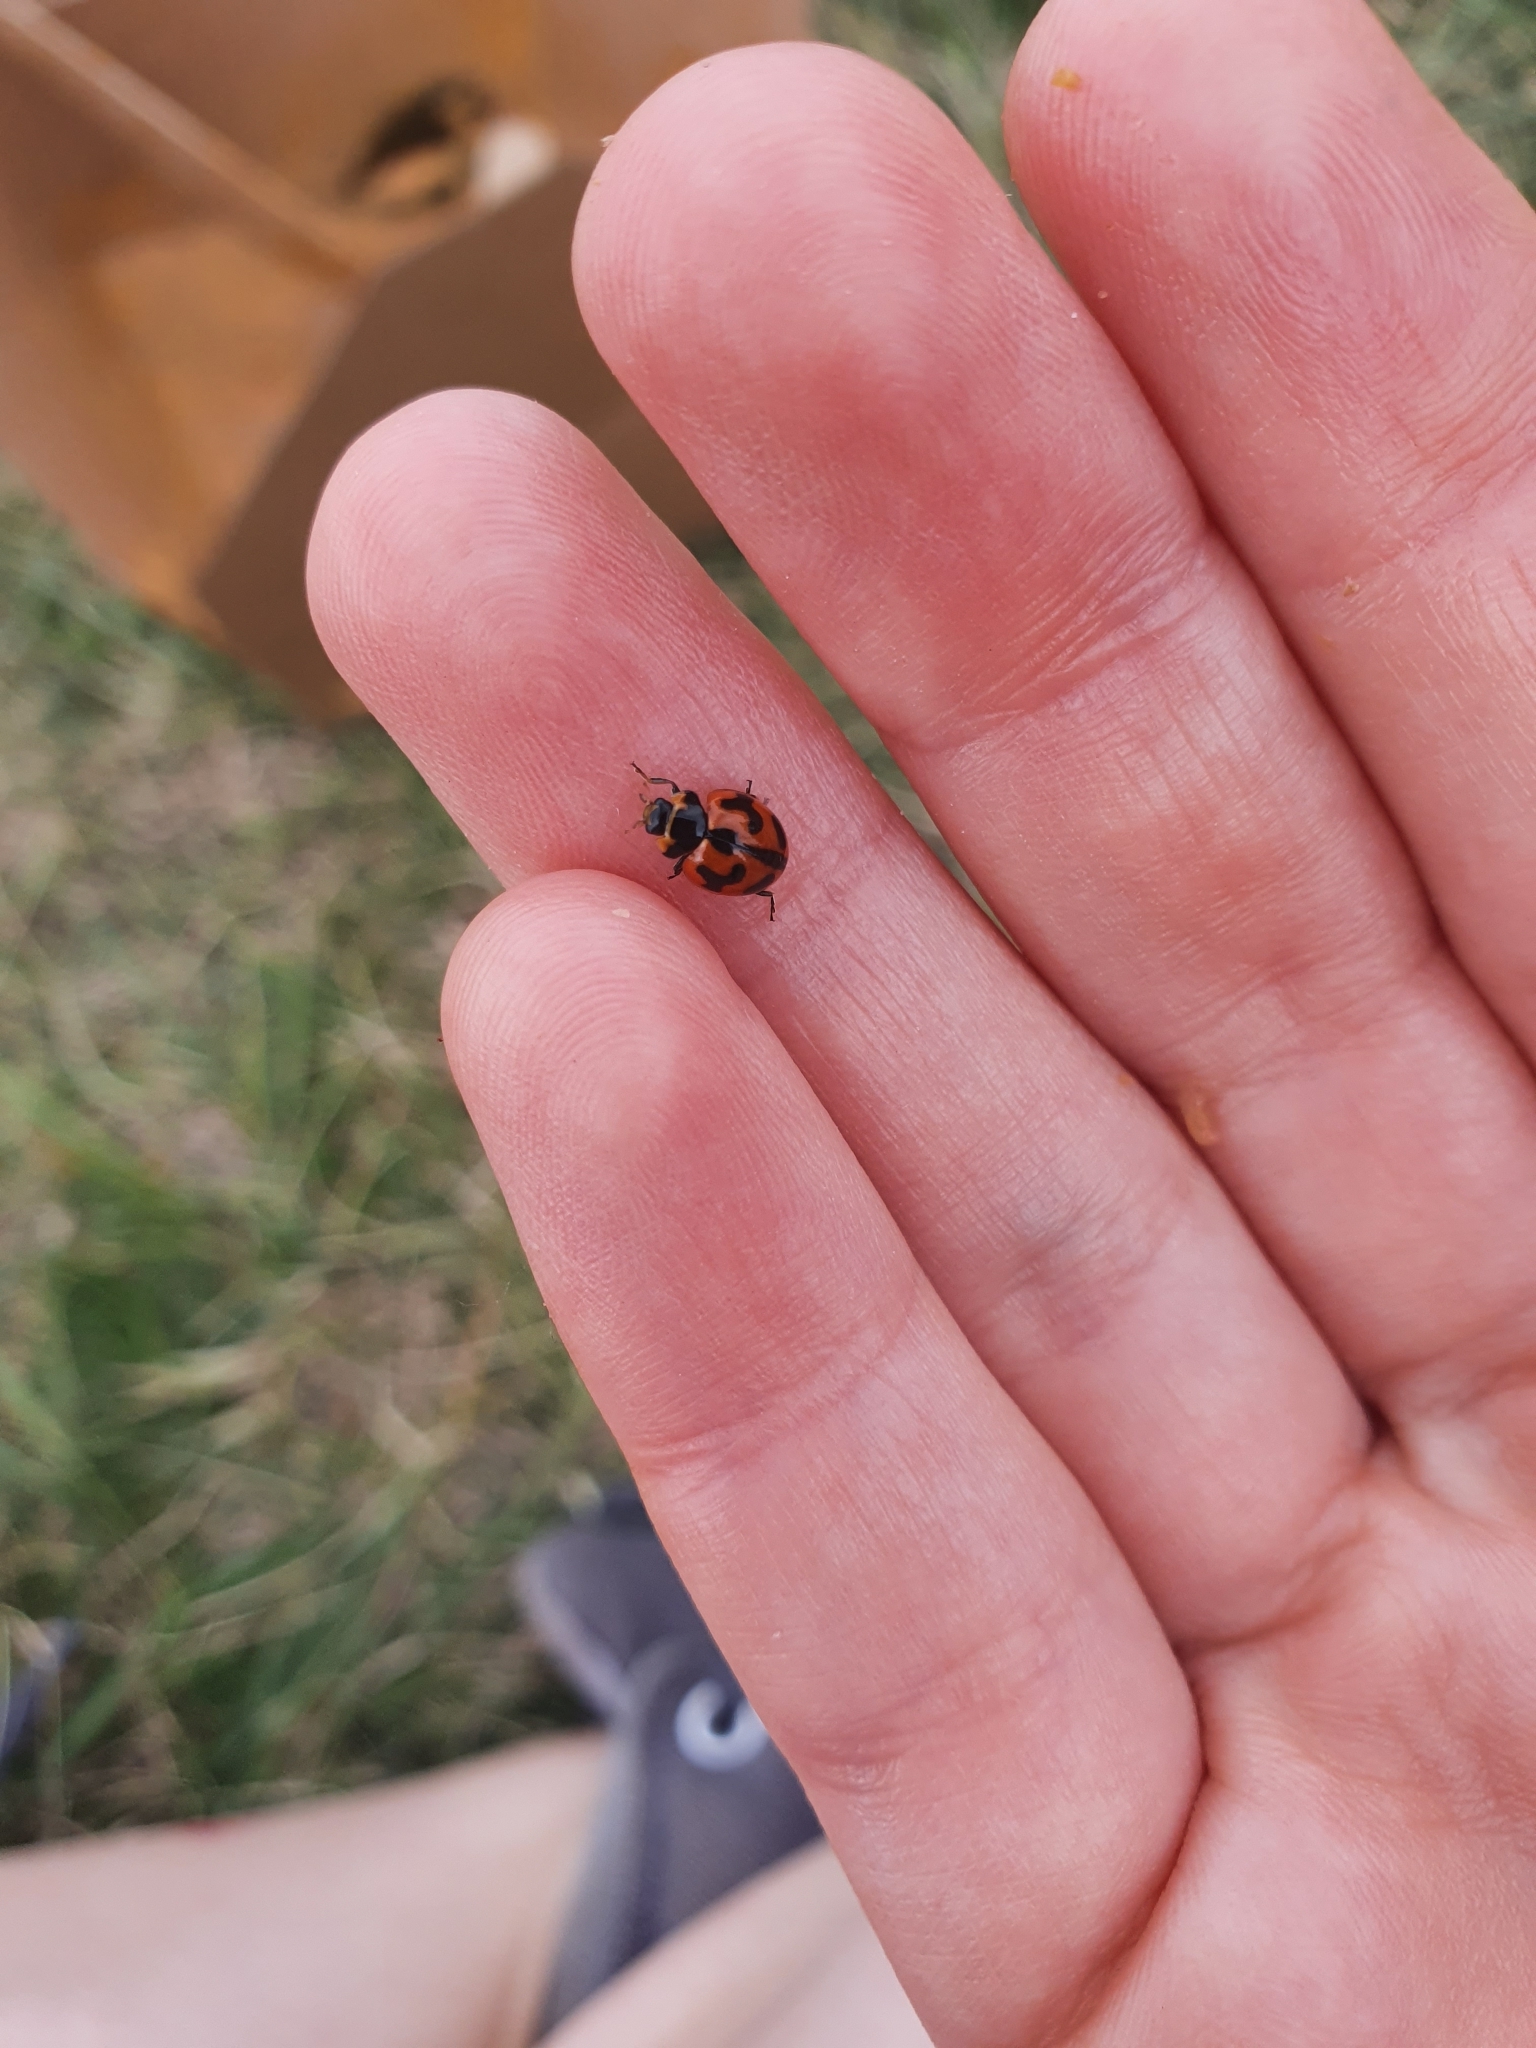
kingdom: Animalia
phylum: Arthropoda
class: Insecta
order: Coleoptera
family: Coccinellidae
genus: Coccinella
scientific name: Coccinella transversalis
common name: Transverse lady beetle
